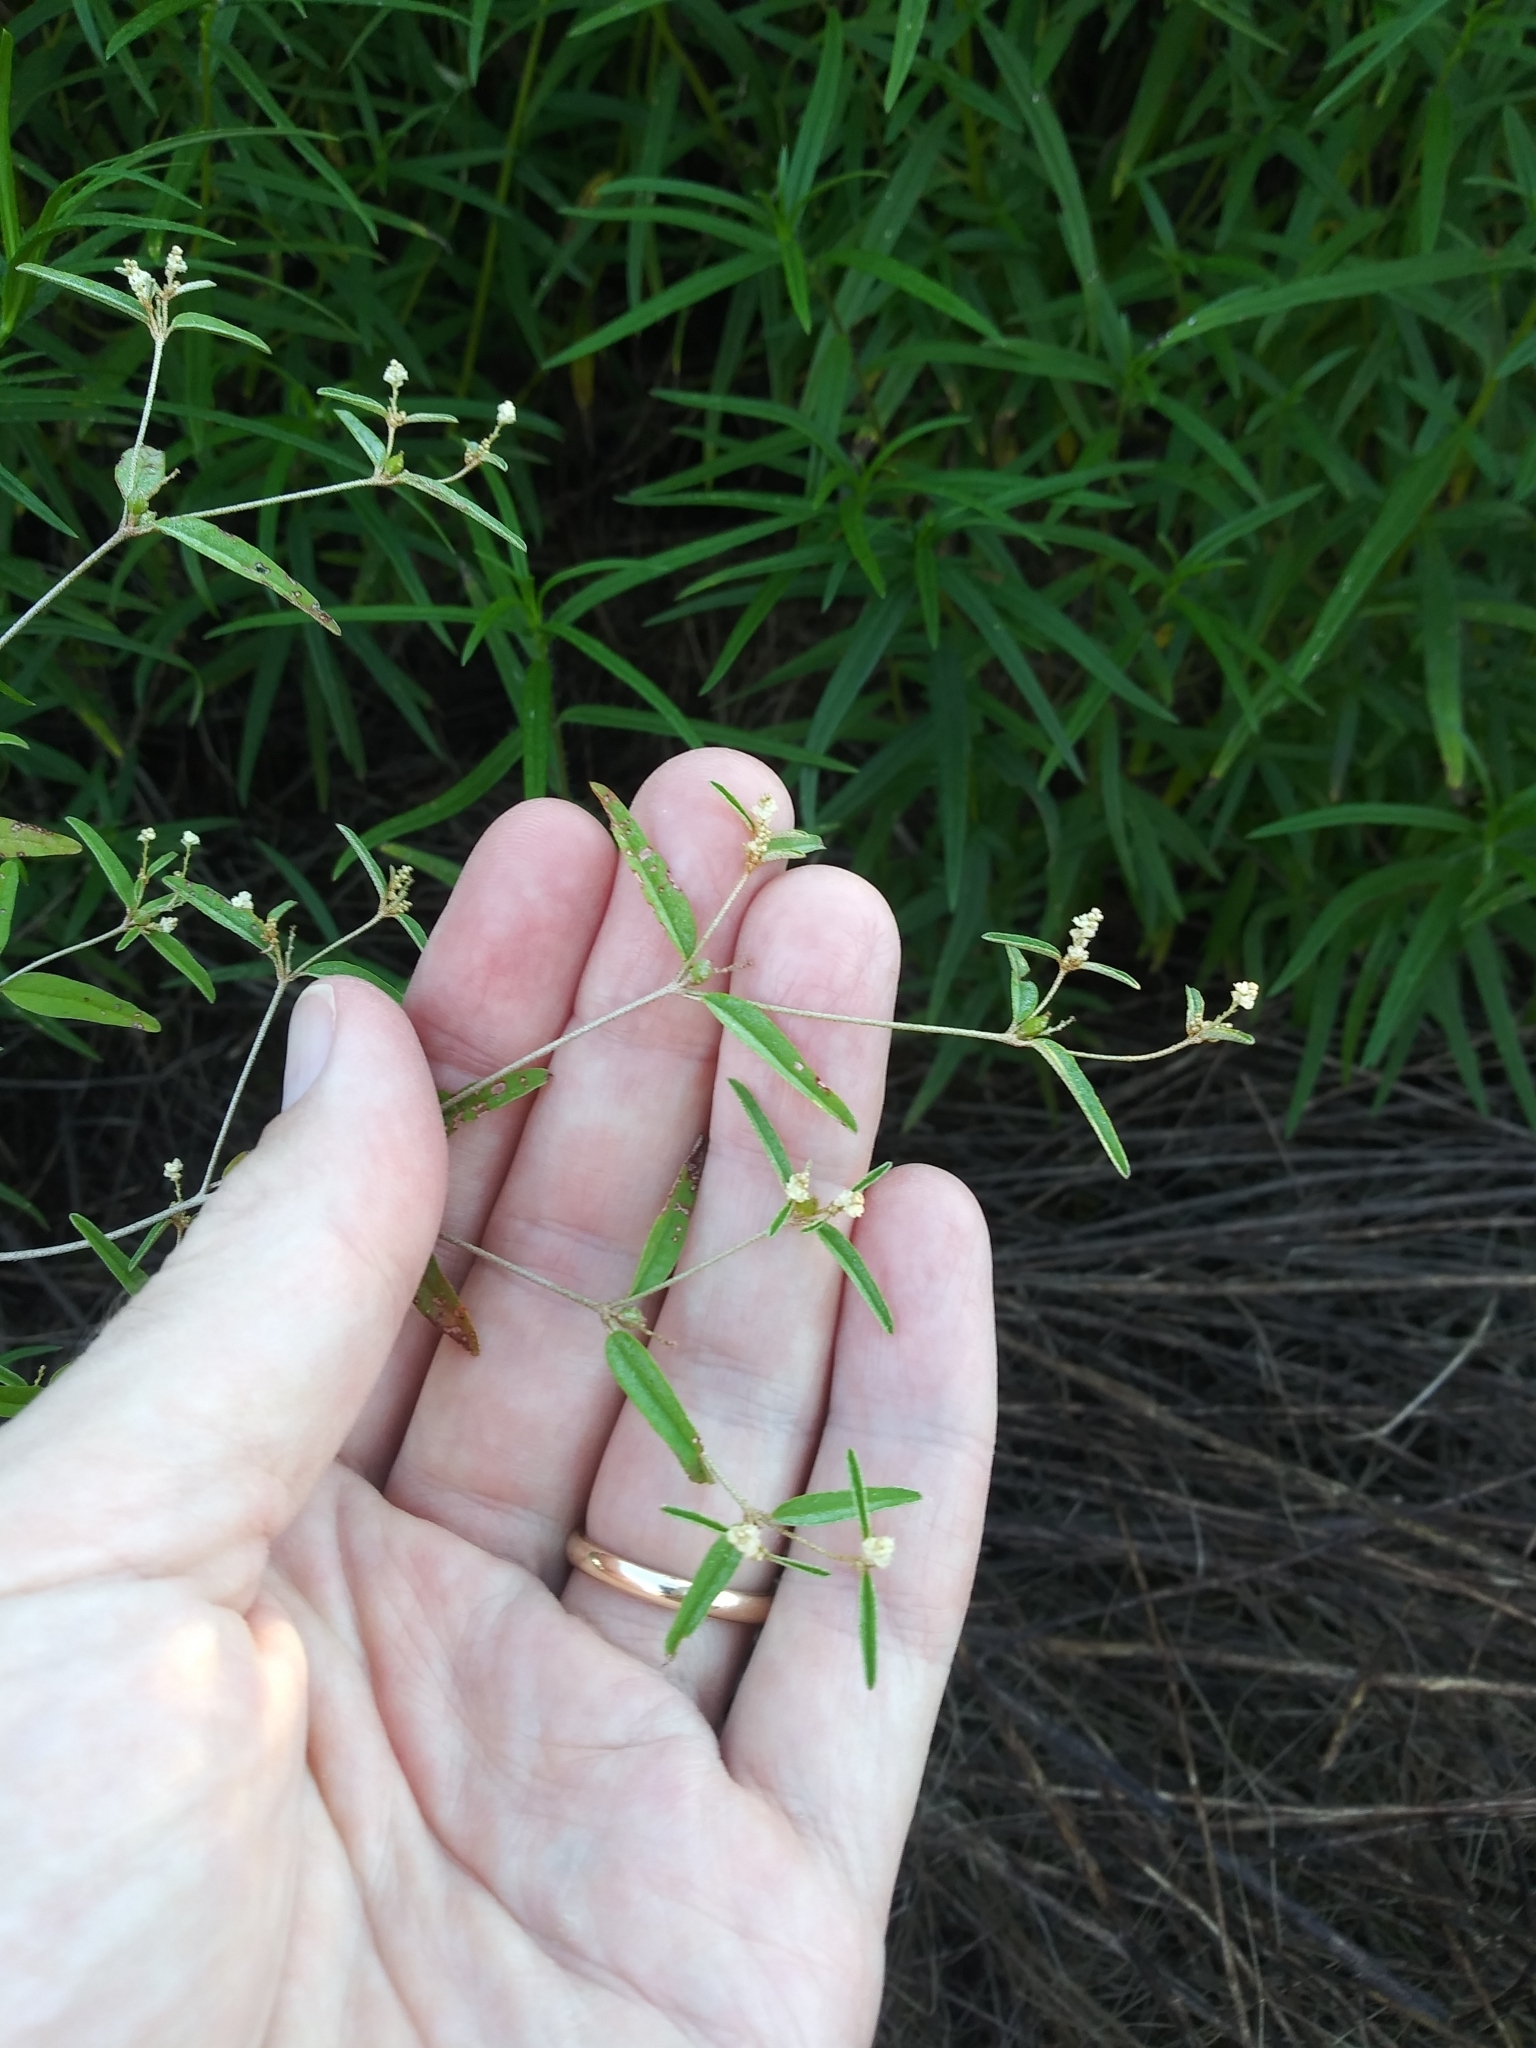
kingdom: Plantae
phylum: Tracheophyta
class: Magnoliopsida
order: Malpighiales
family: Euphorbiaceae
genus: Croton
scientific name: Croton michauxii
